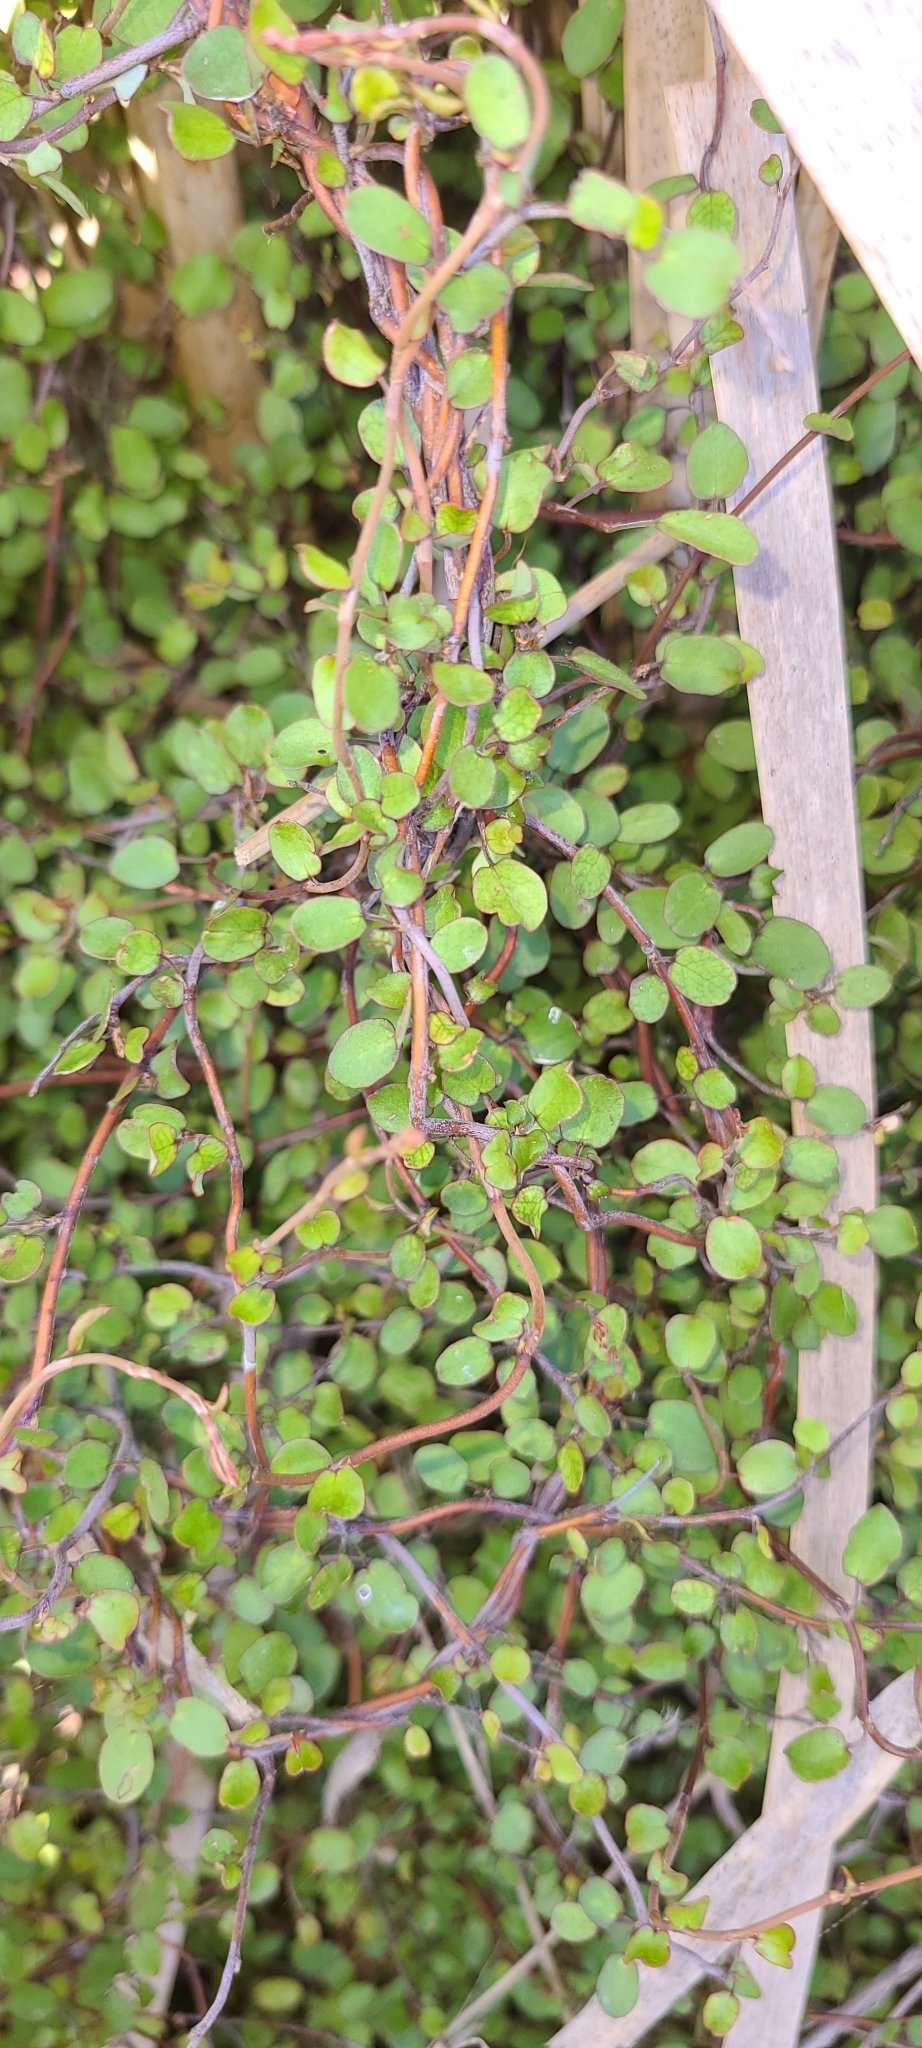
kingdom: Plantae
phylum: Tracheophyta
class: Magnoliopsida
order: Caryophyllales
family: Polygonaceae
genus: Muehlenbeckia
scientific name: Muehlenbeckia complexa
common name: Wireplant
